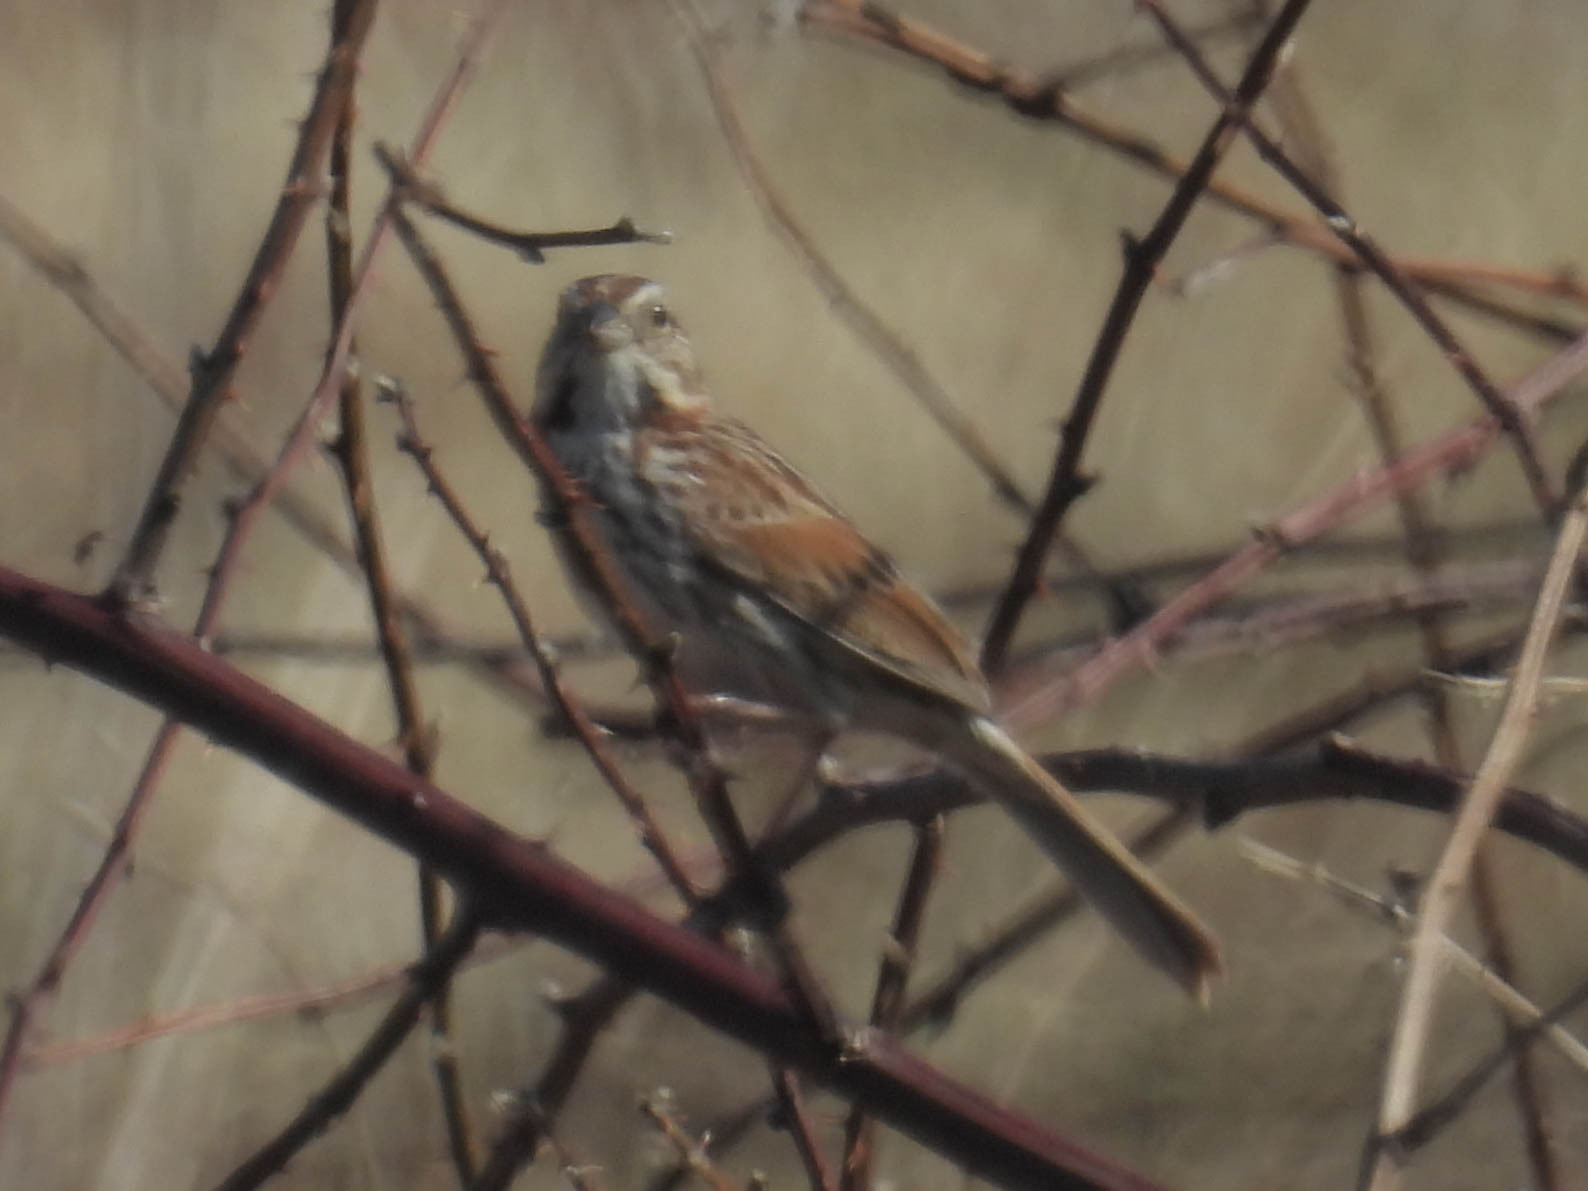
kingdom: Animalia
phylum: Chordata
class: Aves
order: Passeriformes
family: Passerellidae
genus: Melospiza
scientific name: Melospiza melodia
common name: Song sparrow
